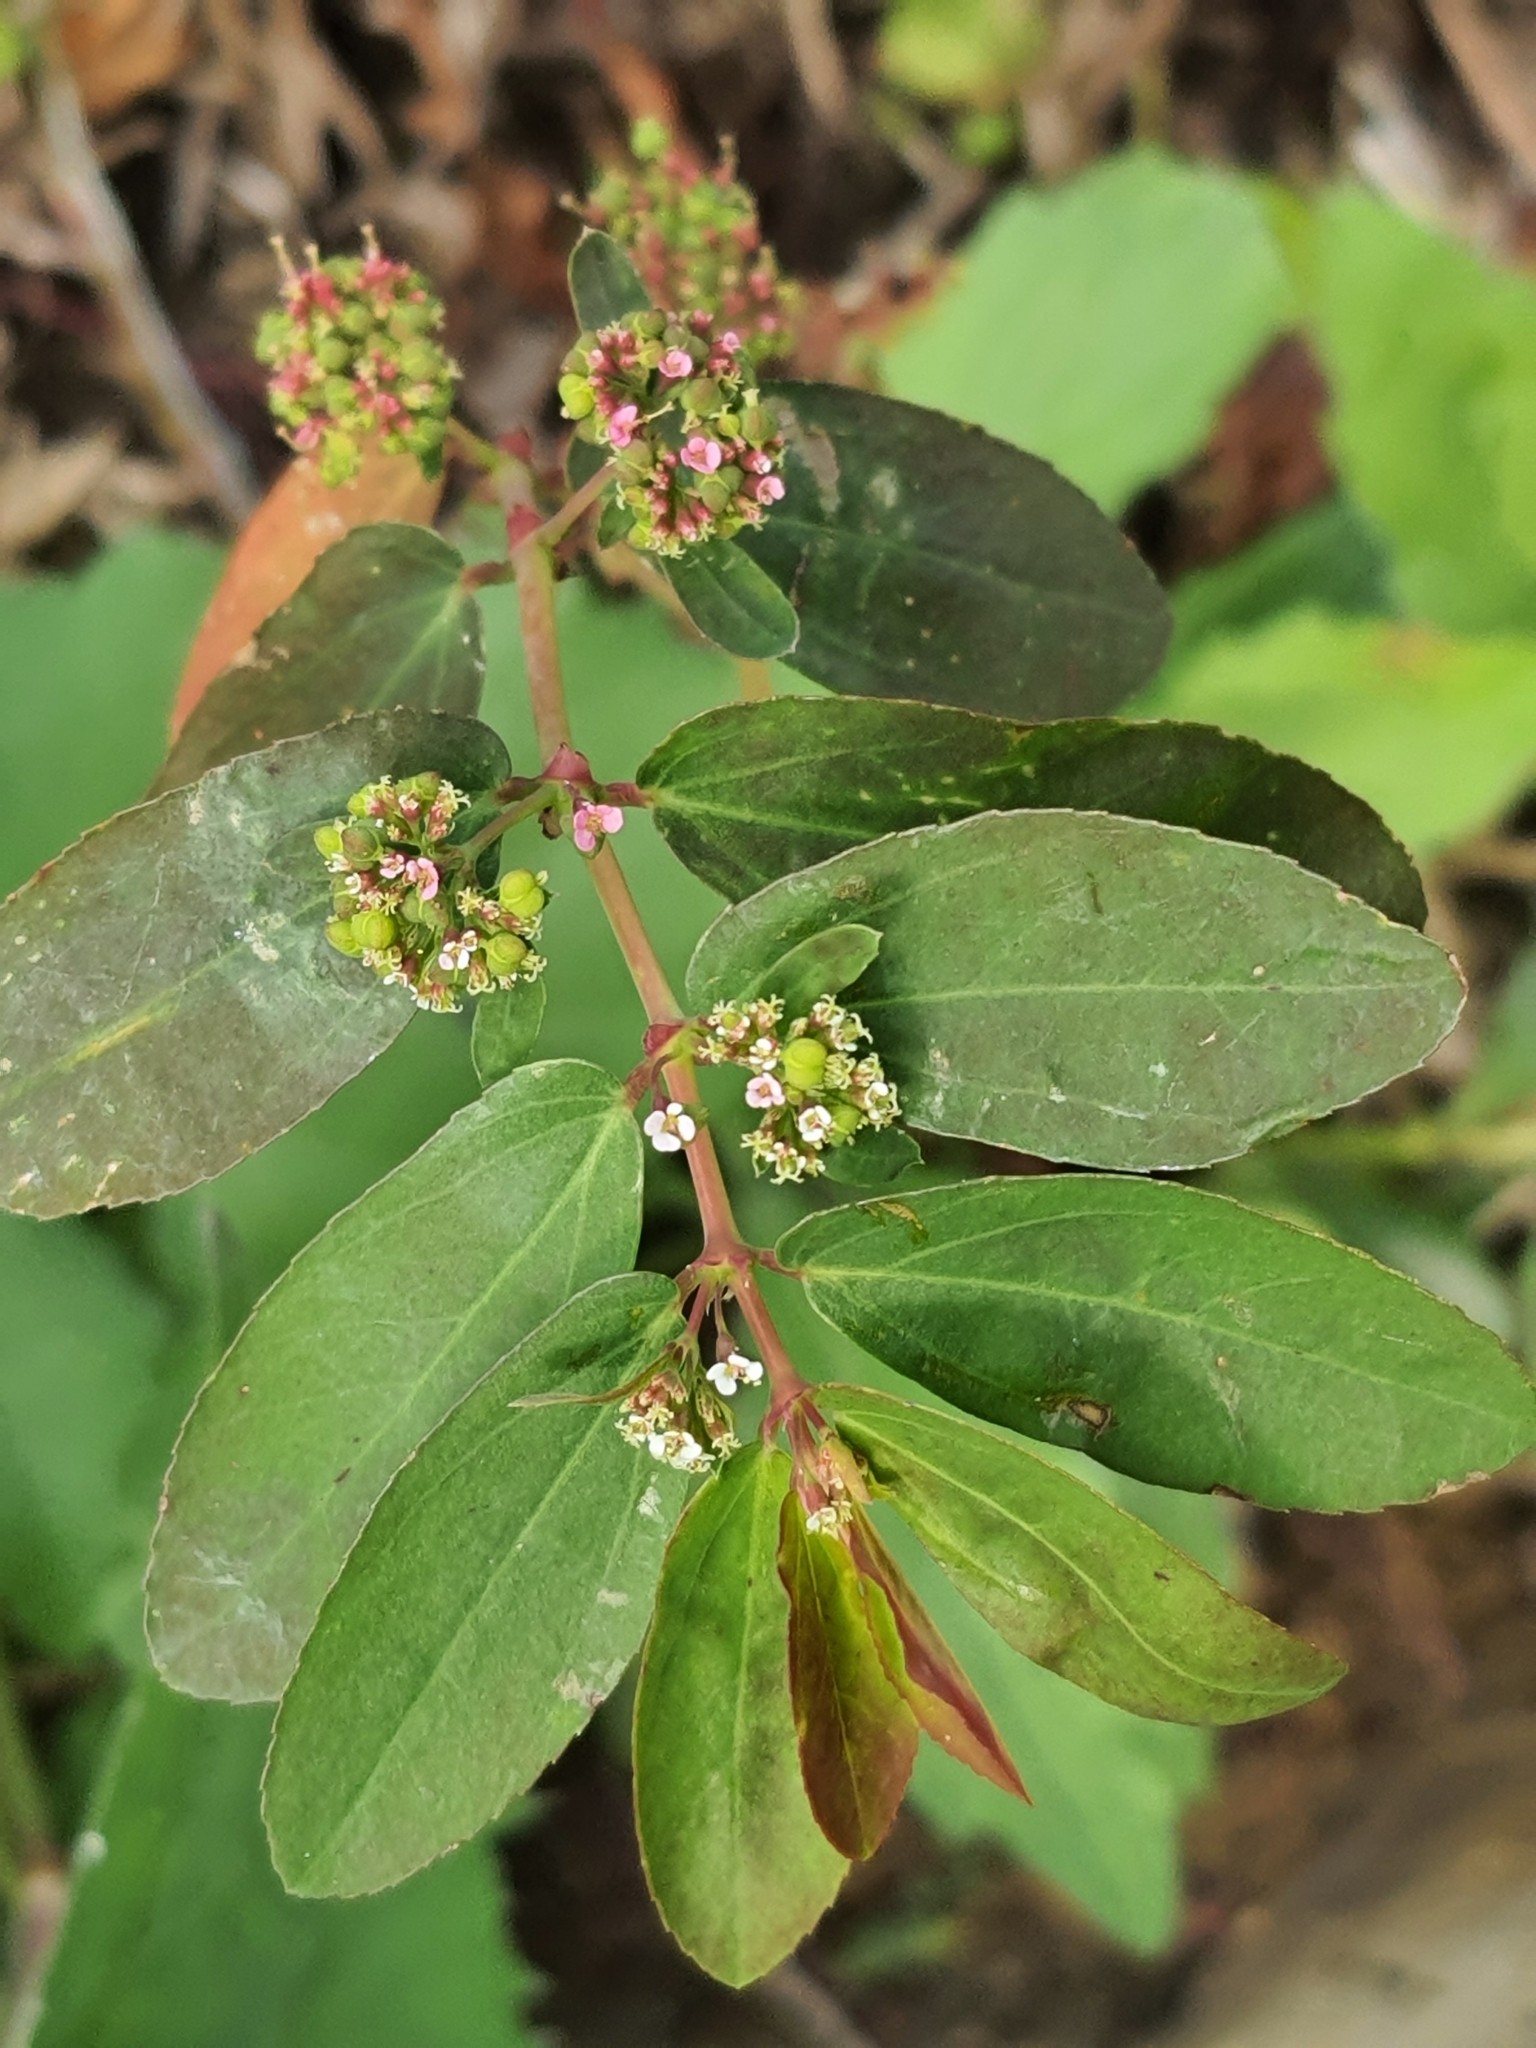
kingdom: Plantae
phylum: Tracheophyta
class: Magnoliopsida
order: Malpighiales
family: Euphorbiaceae
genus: Euphorbia
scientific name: Euphorbia hypericifolia
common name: Graceful sandmat
